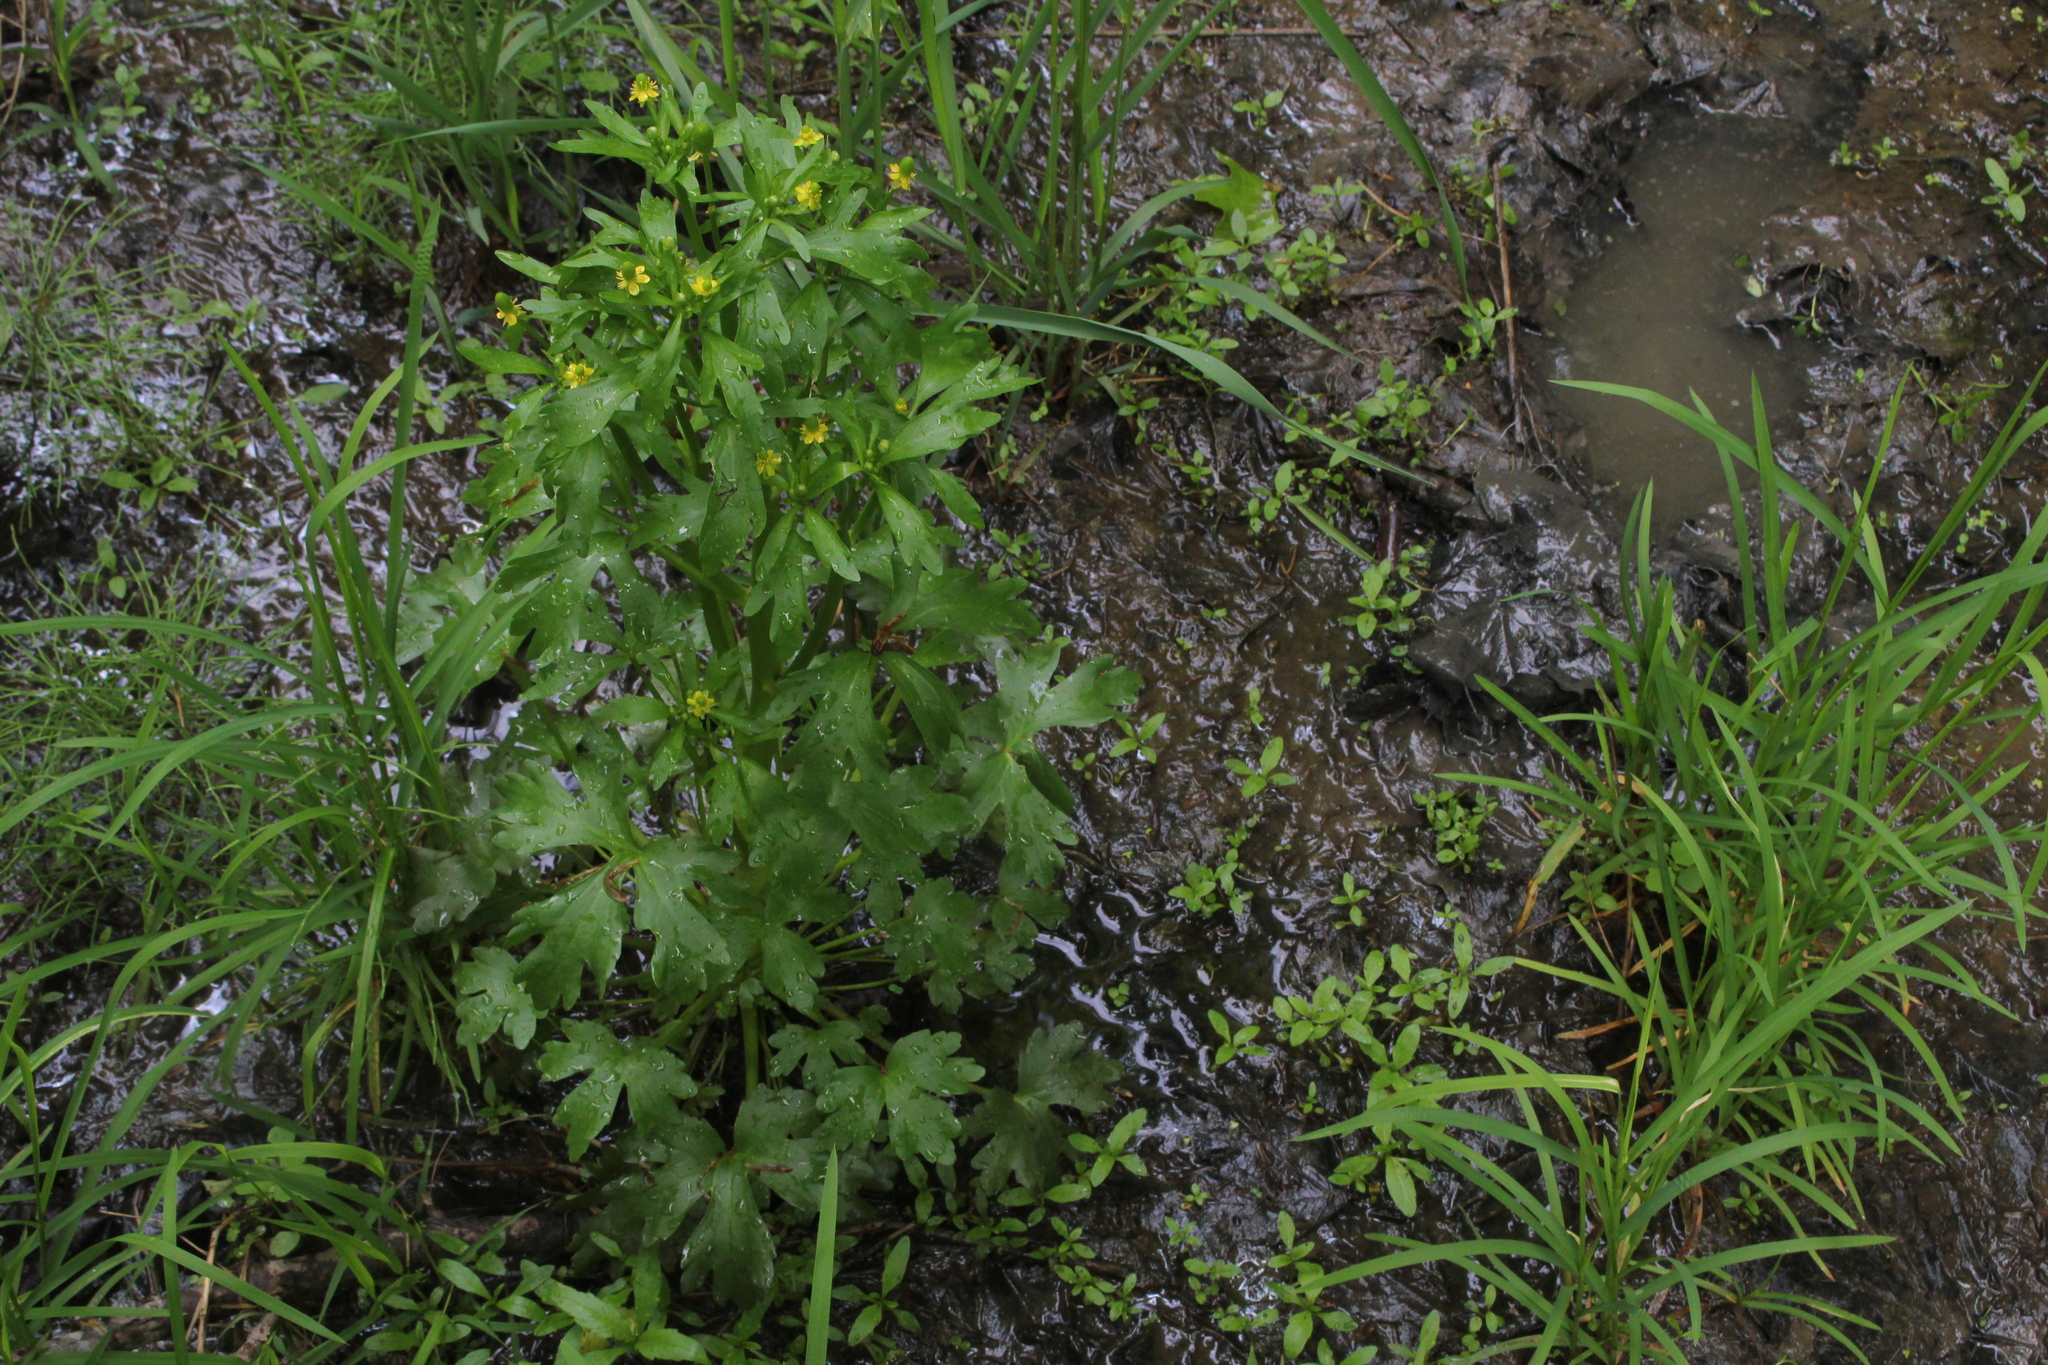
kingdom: Plantae
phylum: Tracheophyta
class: Magnoliopsida
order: Ranunculales
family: Ranunculaceae
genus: Ranunculus
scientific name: Ranunculus sceleratus
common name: Celery-leaved buttercup
